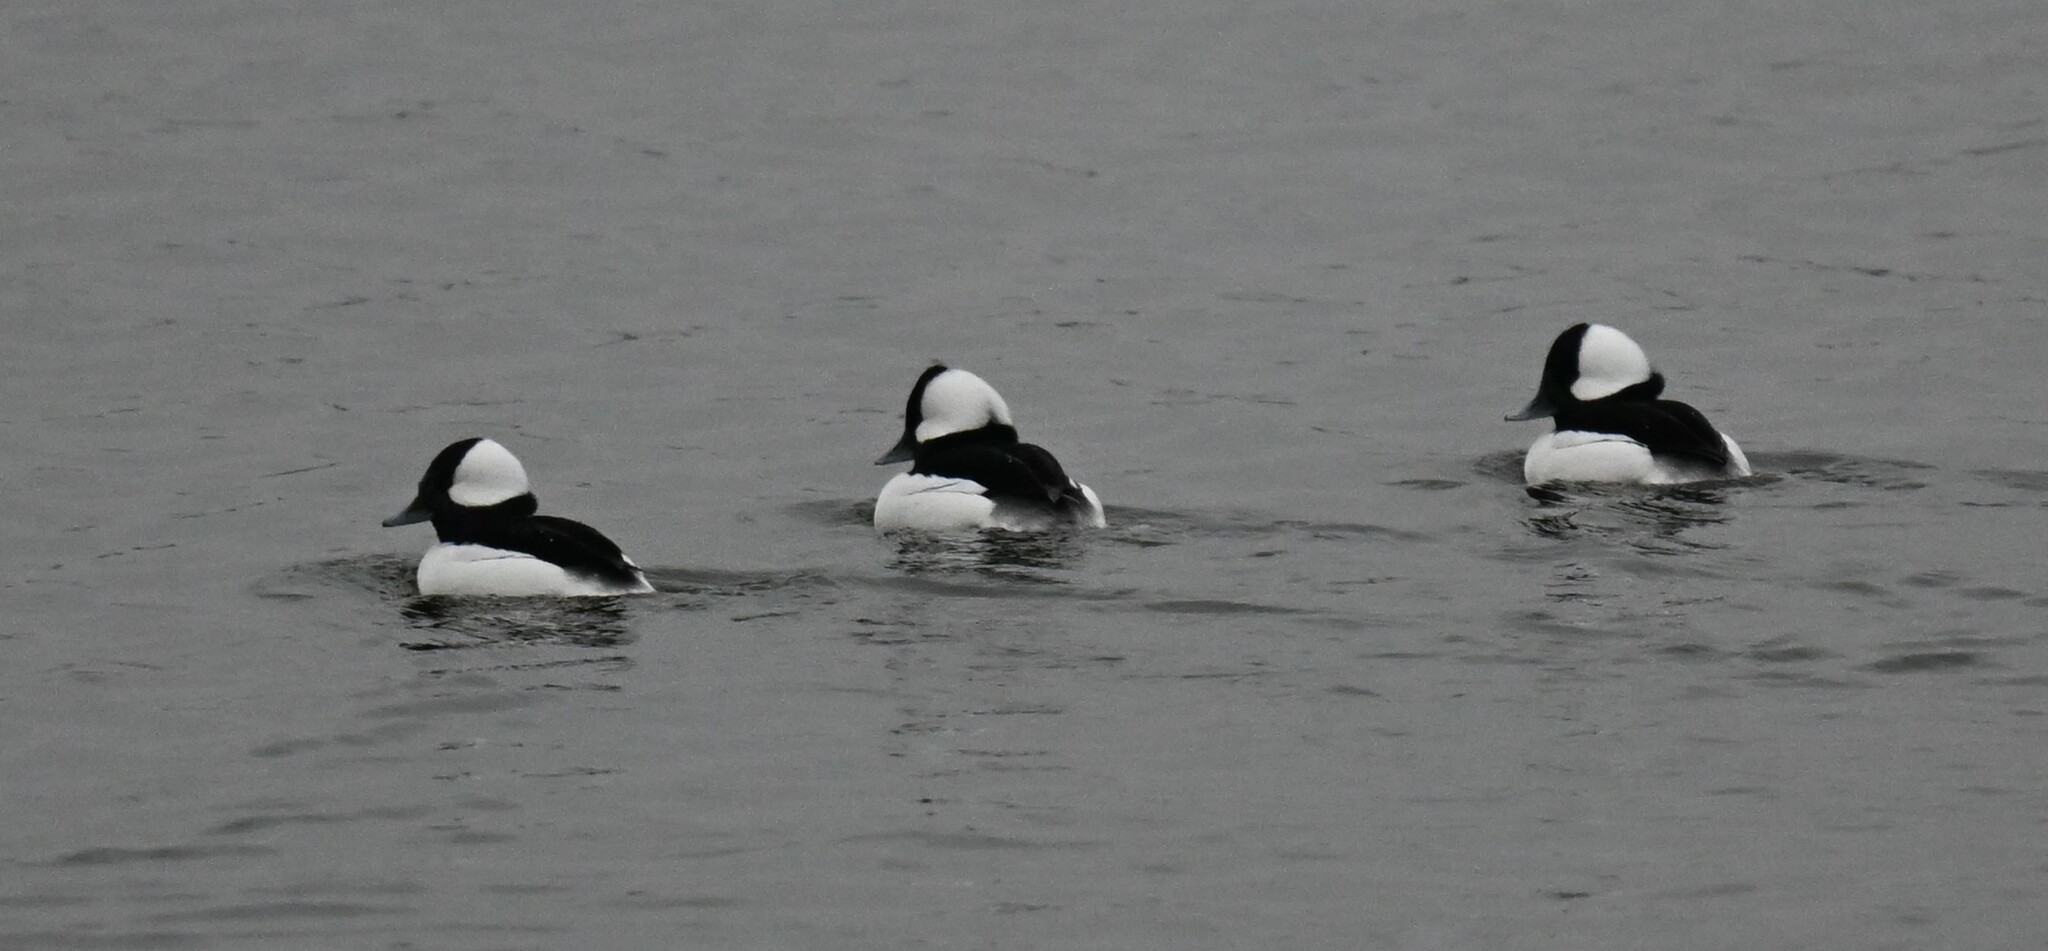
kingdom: Animalia
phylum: Chordata
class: Aves
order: Anseriformes
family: Anatidae
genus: Bucephala
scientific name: Bucephala albeola
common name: Bufflehead
